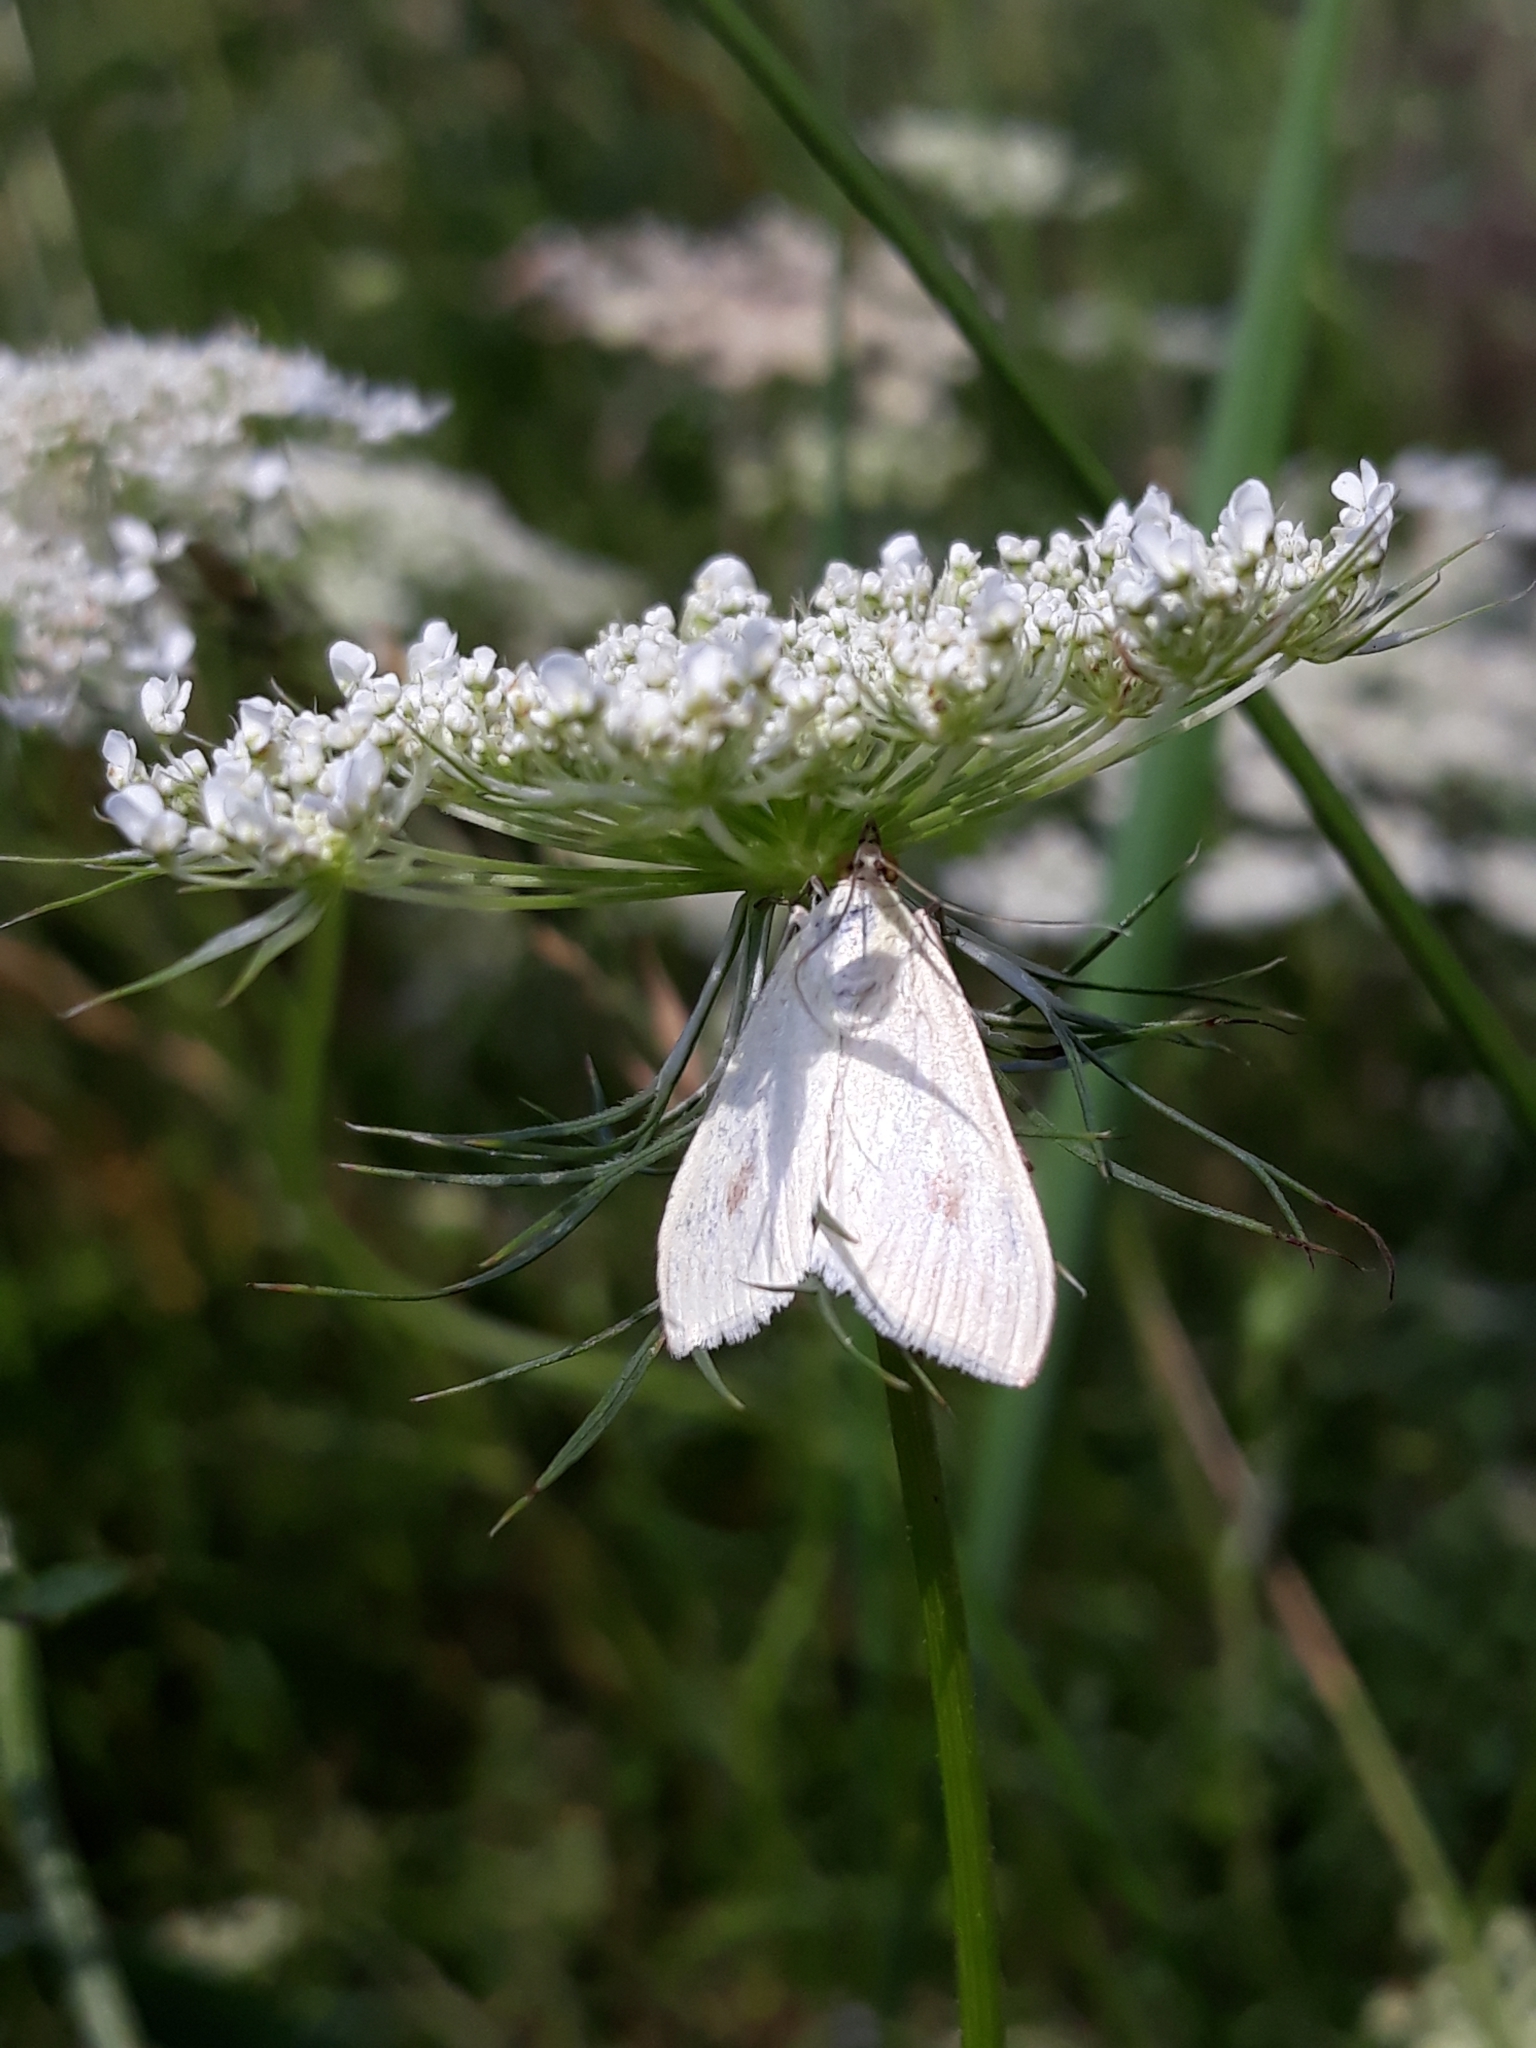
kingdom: Animalia
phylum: Arthropoda
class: Insecta
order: Lepidoptera
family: Crambidae
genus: Sitochroa
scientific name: Sitochroa palealis
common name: Greenish-yellow sitochroa moth
